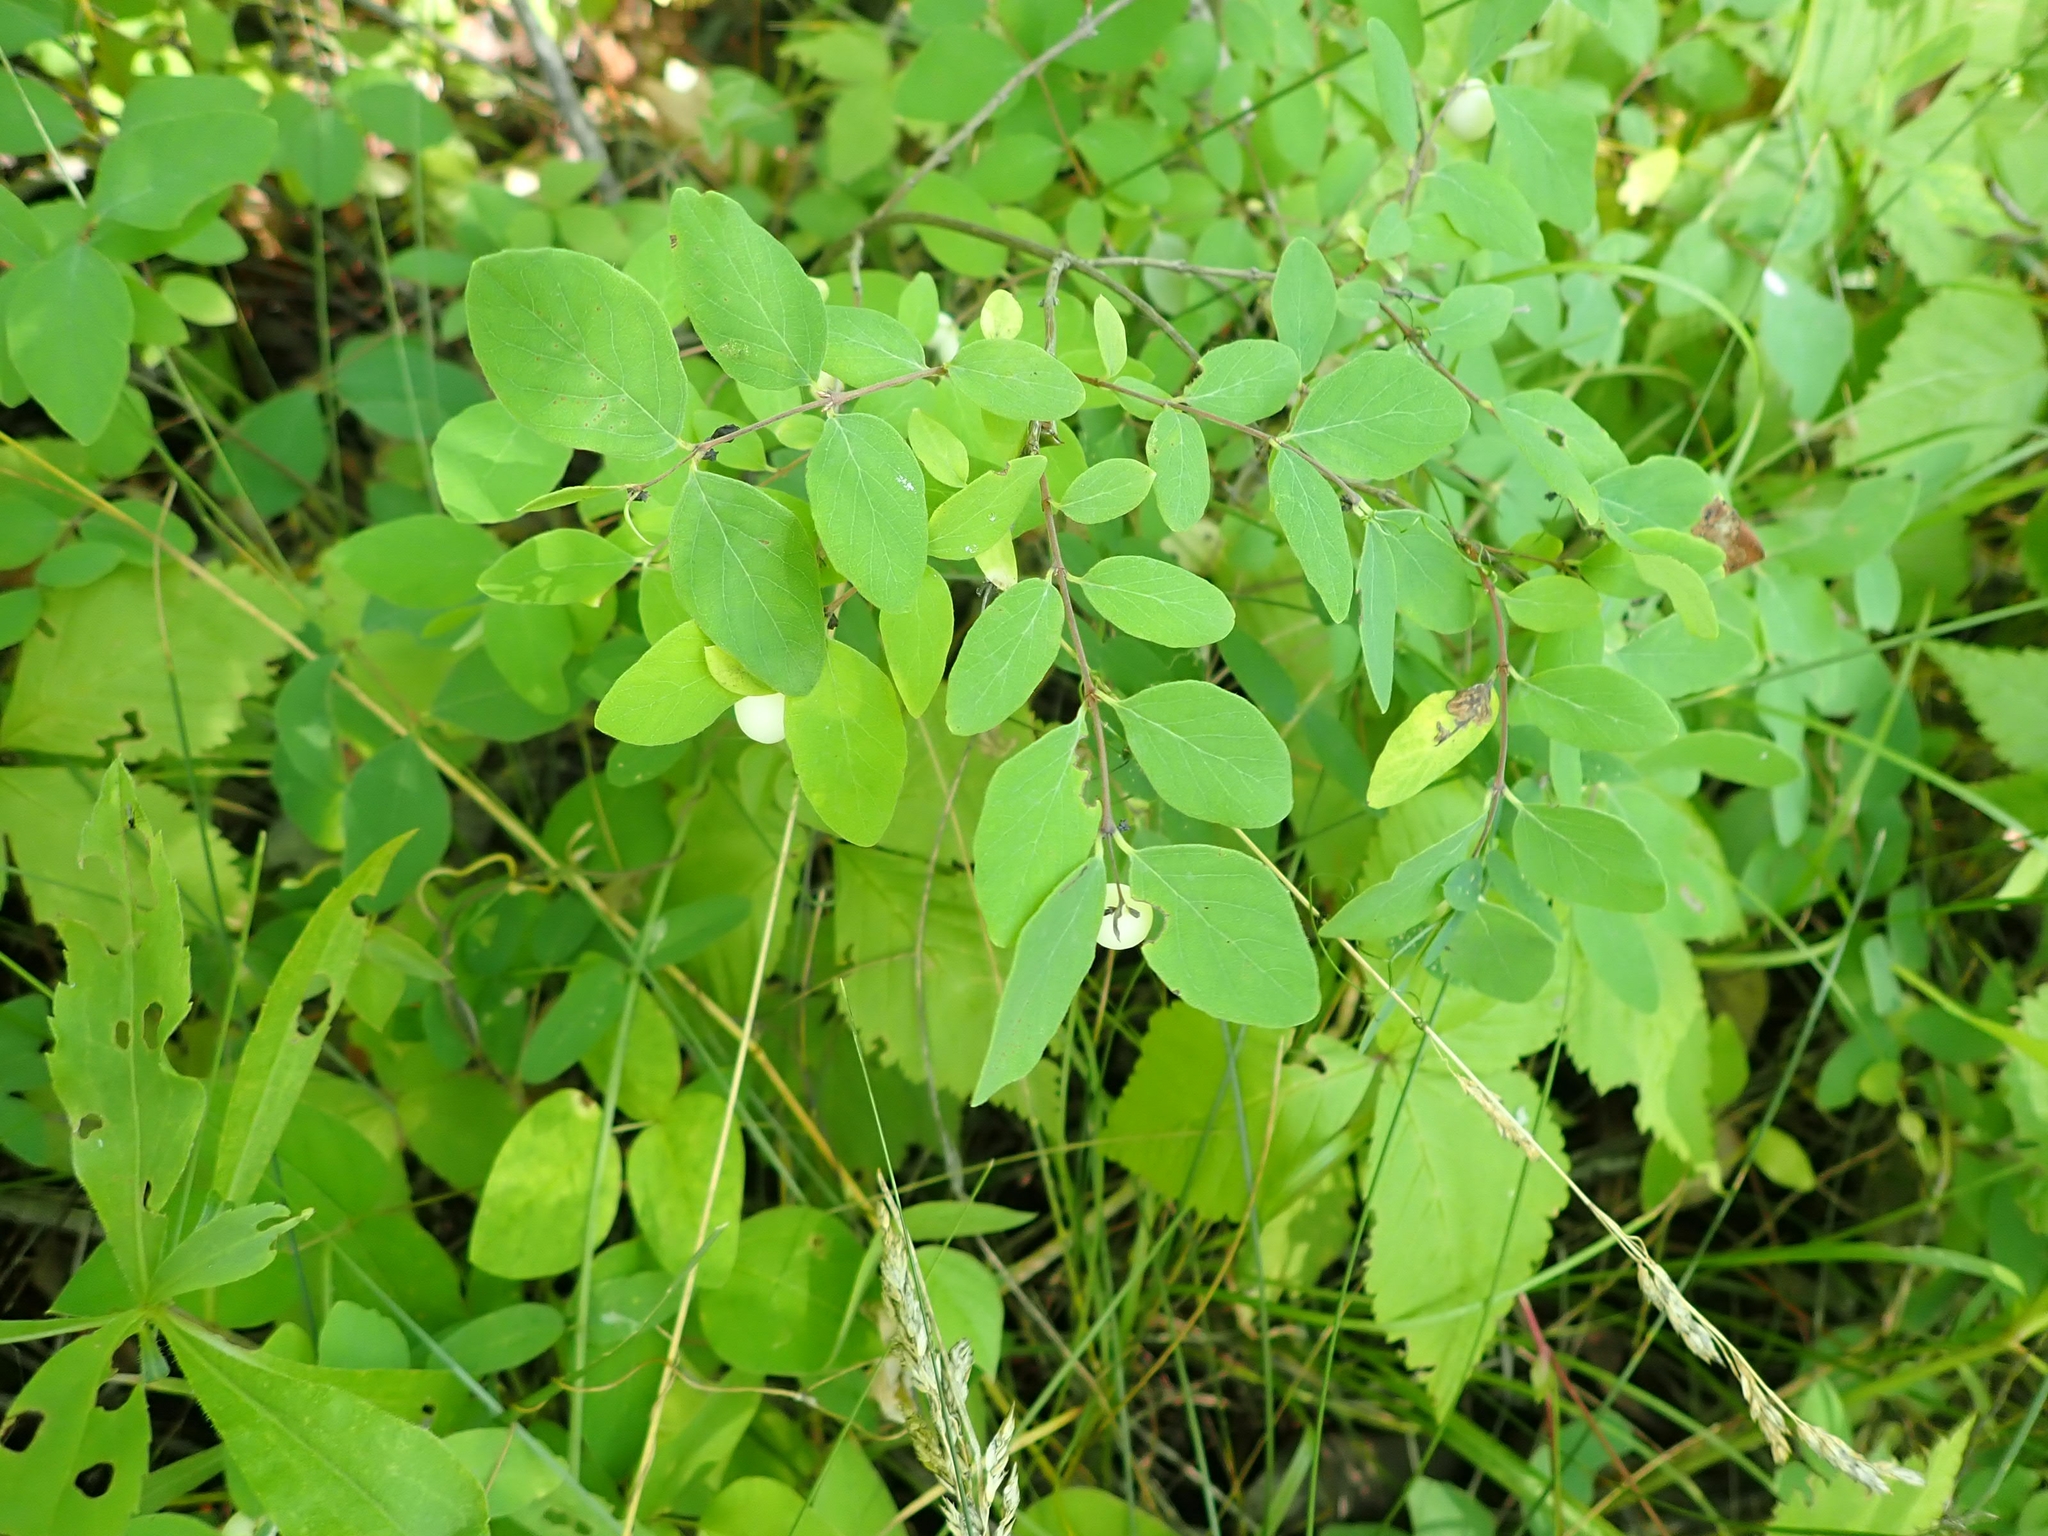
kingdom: Plantae
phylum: Tracheophyta
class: Magnoliopsida
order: Dipsacales
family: Caprifoliaceae
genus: Symphoricarpos
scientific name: Symphoricarpos albus
